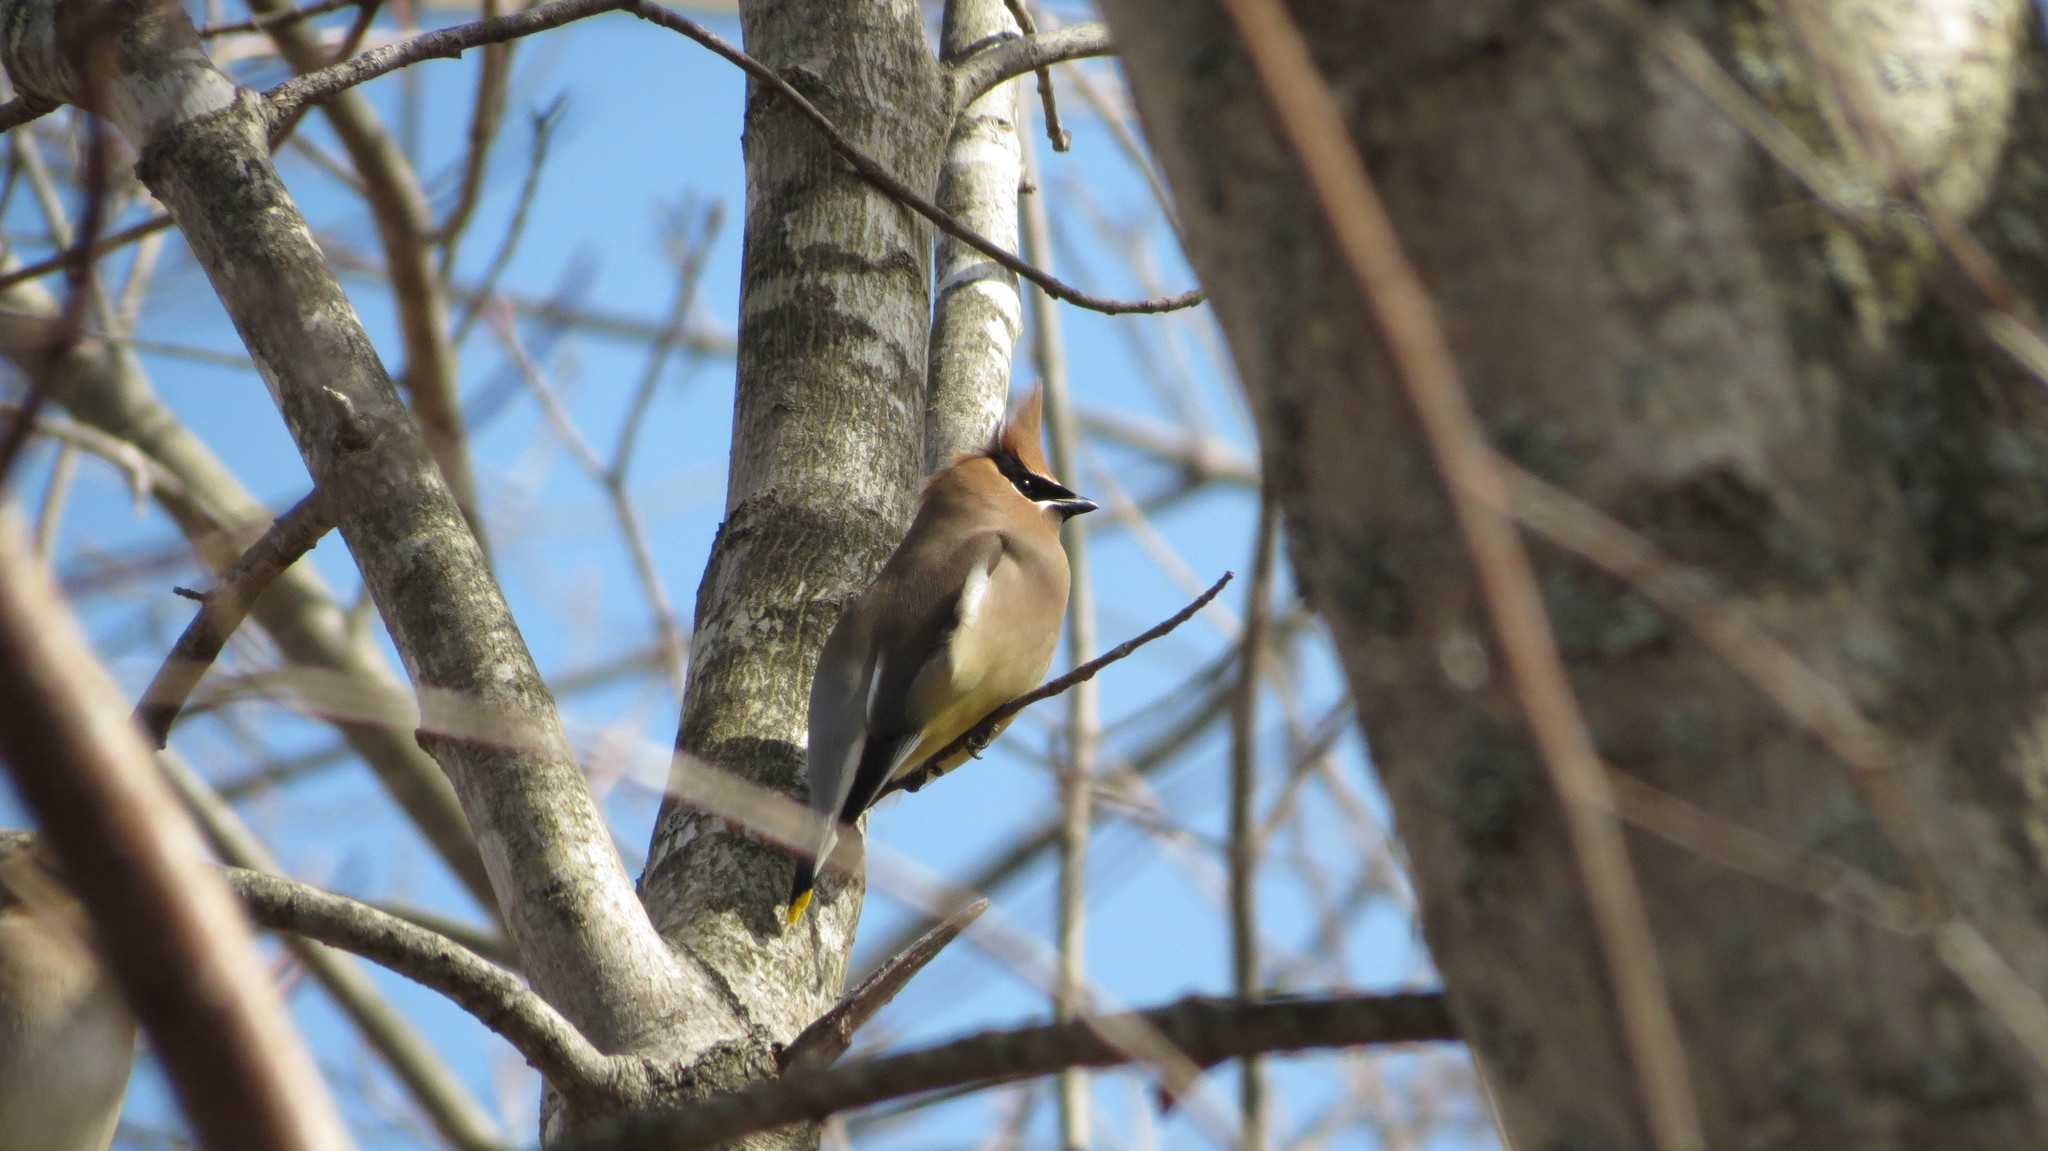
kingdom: Animalia
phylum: Chordata
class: Aves
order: Passeriformes
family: Bombycillidae
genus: Bombycilla
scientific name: Bombycilla cedrorum
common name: Cedar waxwing
